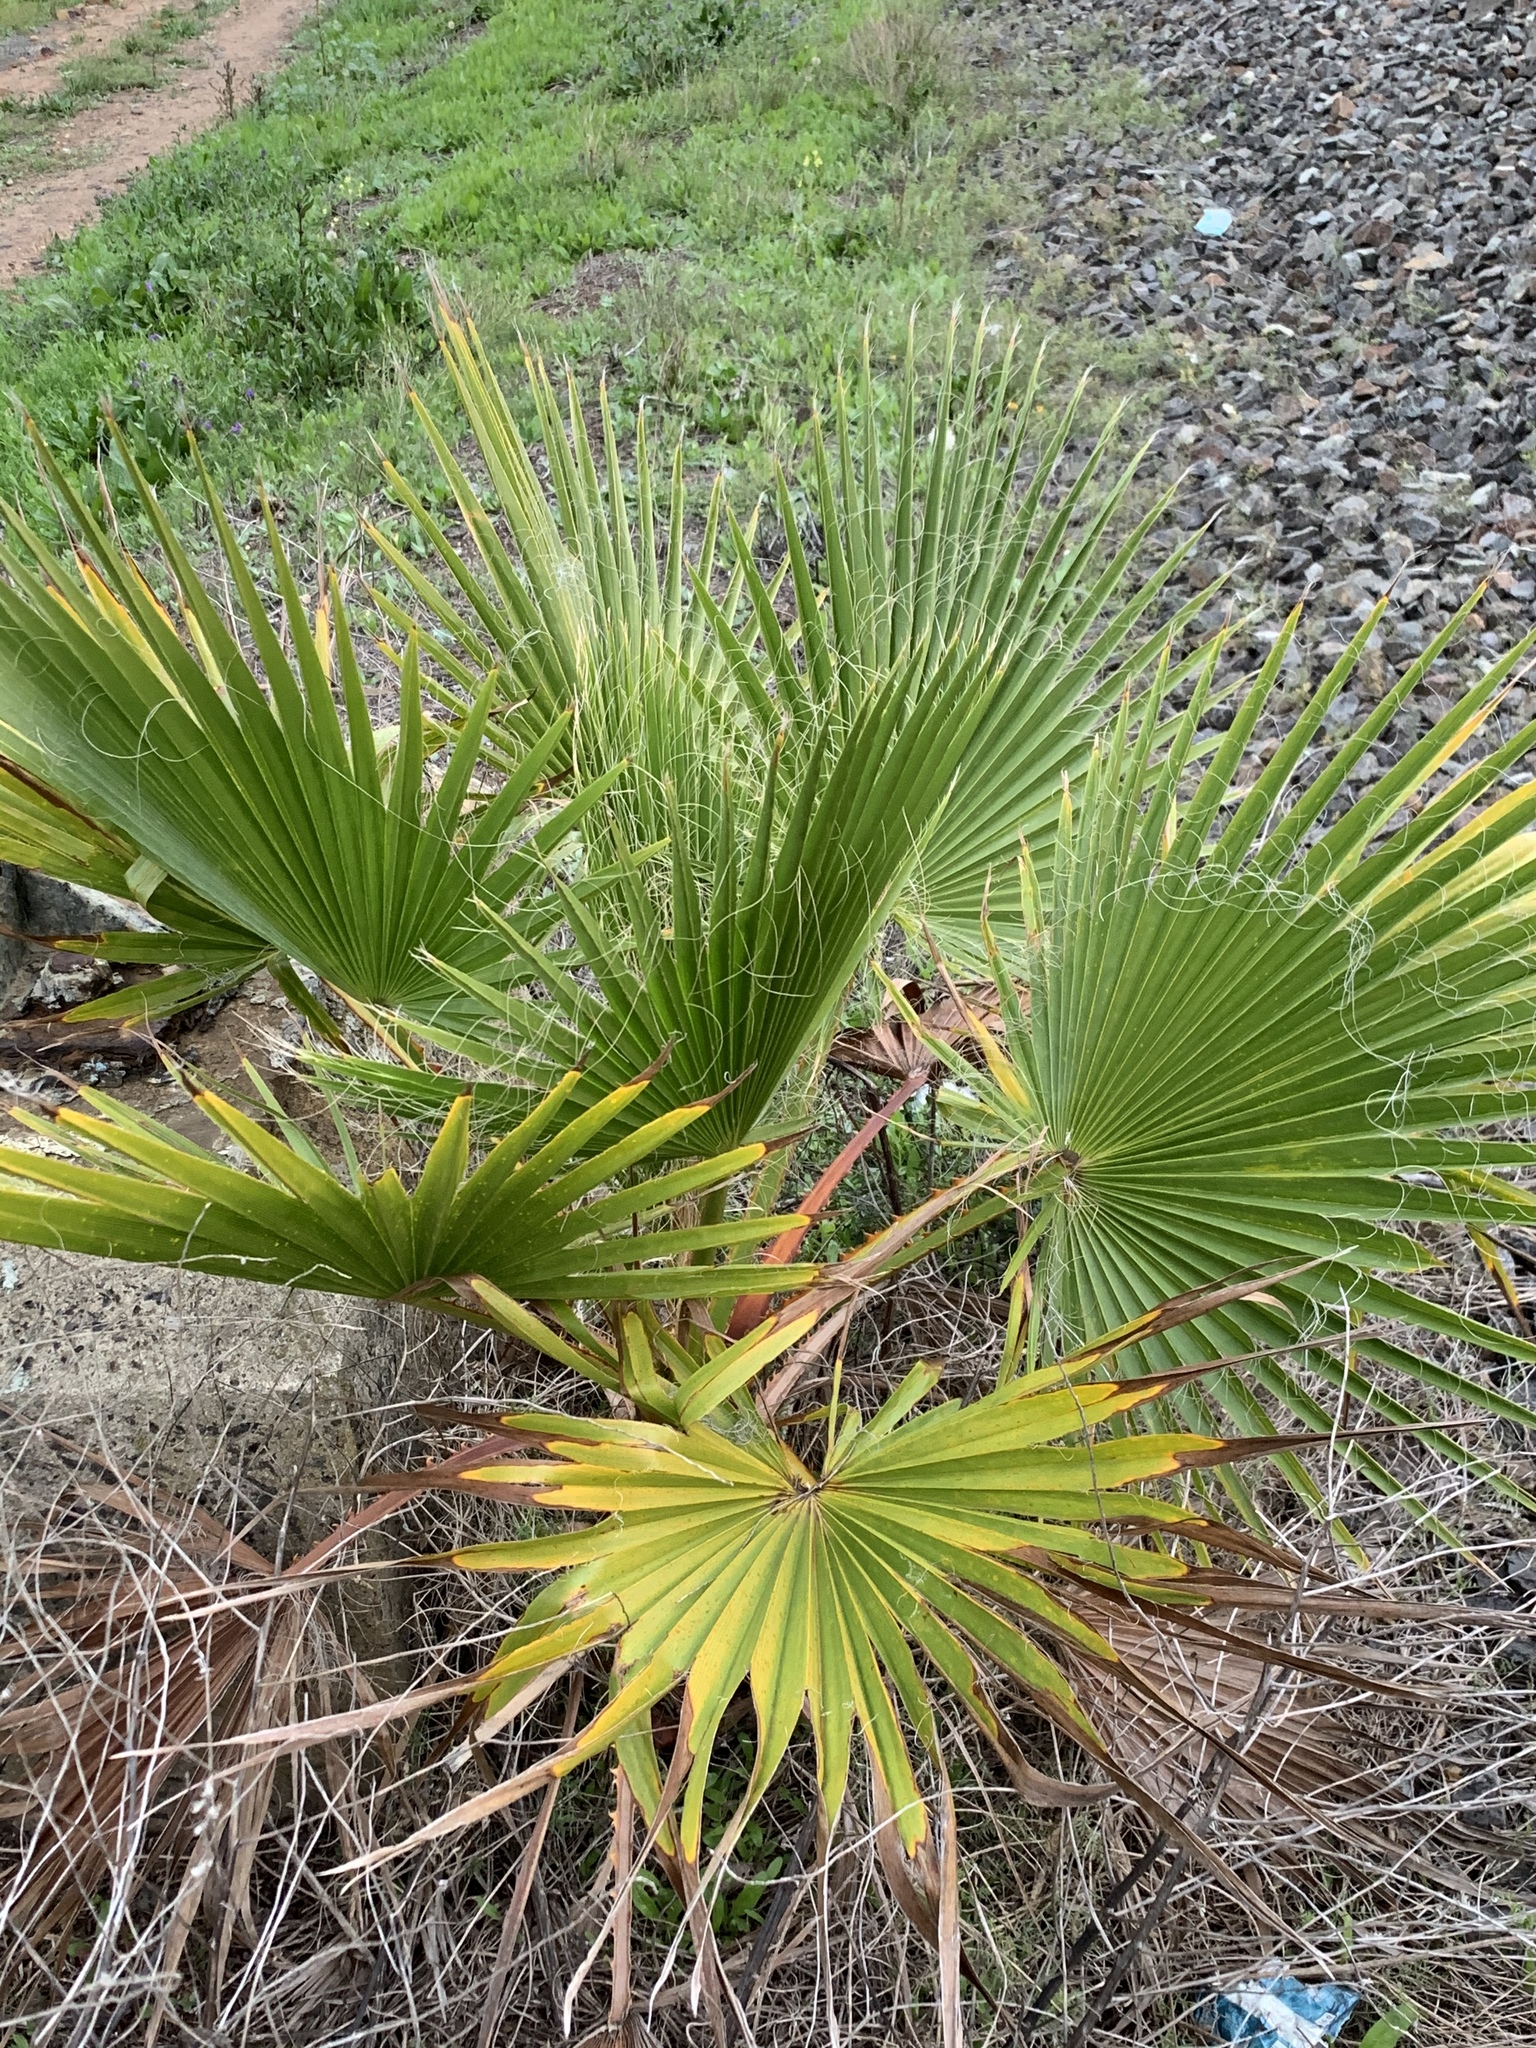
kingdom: Plantae
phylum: Tracheophyta
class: Liliopsida
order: Arecales
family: Arecaceae
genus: Washingtonia
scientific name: Washingtonia robusta
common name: Mexican fan palm
